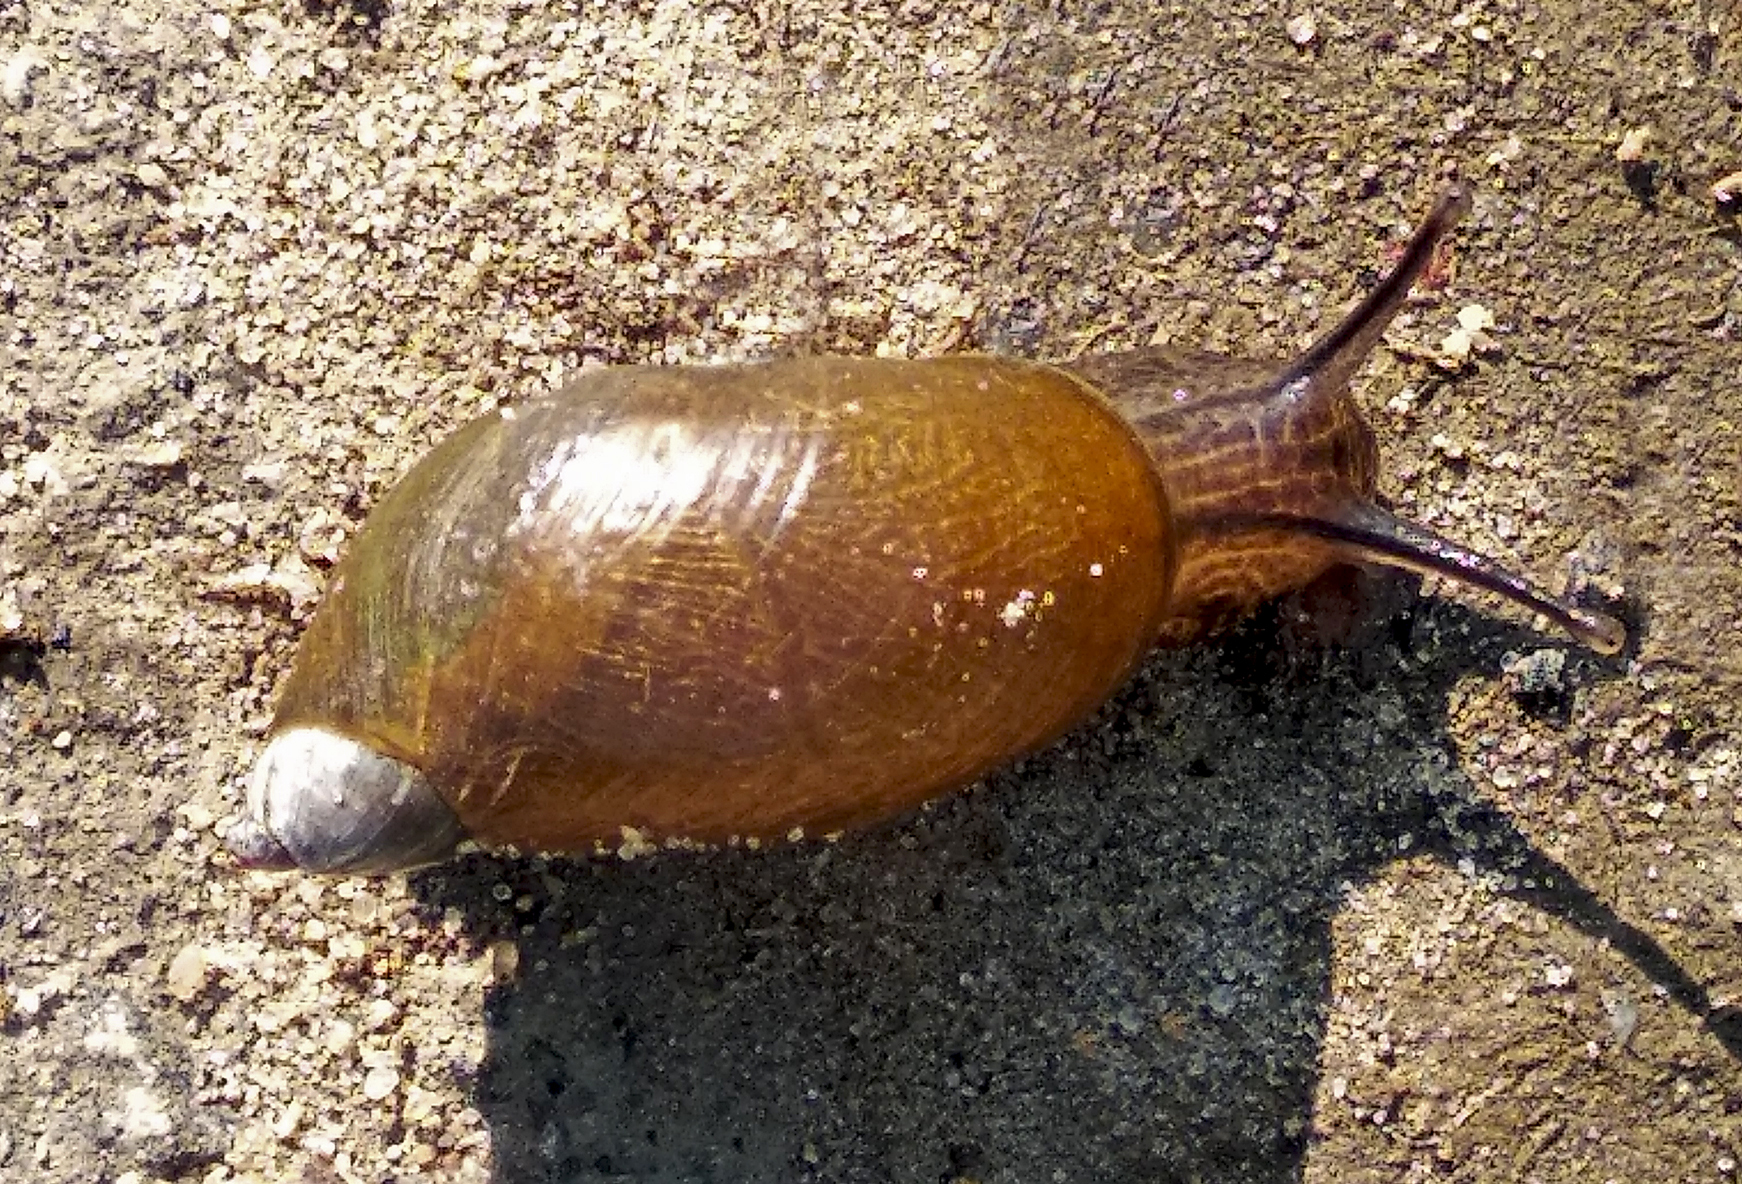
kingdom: Animalia
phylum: Mollusca
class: Gastropoda
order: Stylommatophora
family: Succineidae
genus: Succinea
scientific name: Succinea putris
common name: European ambersnail
